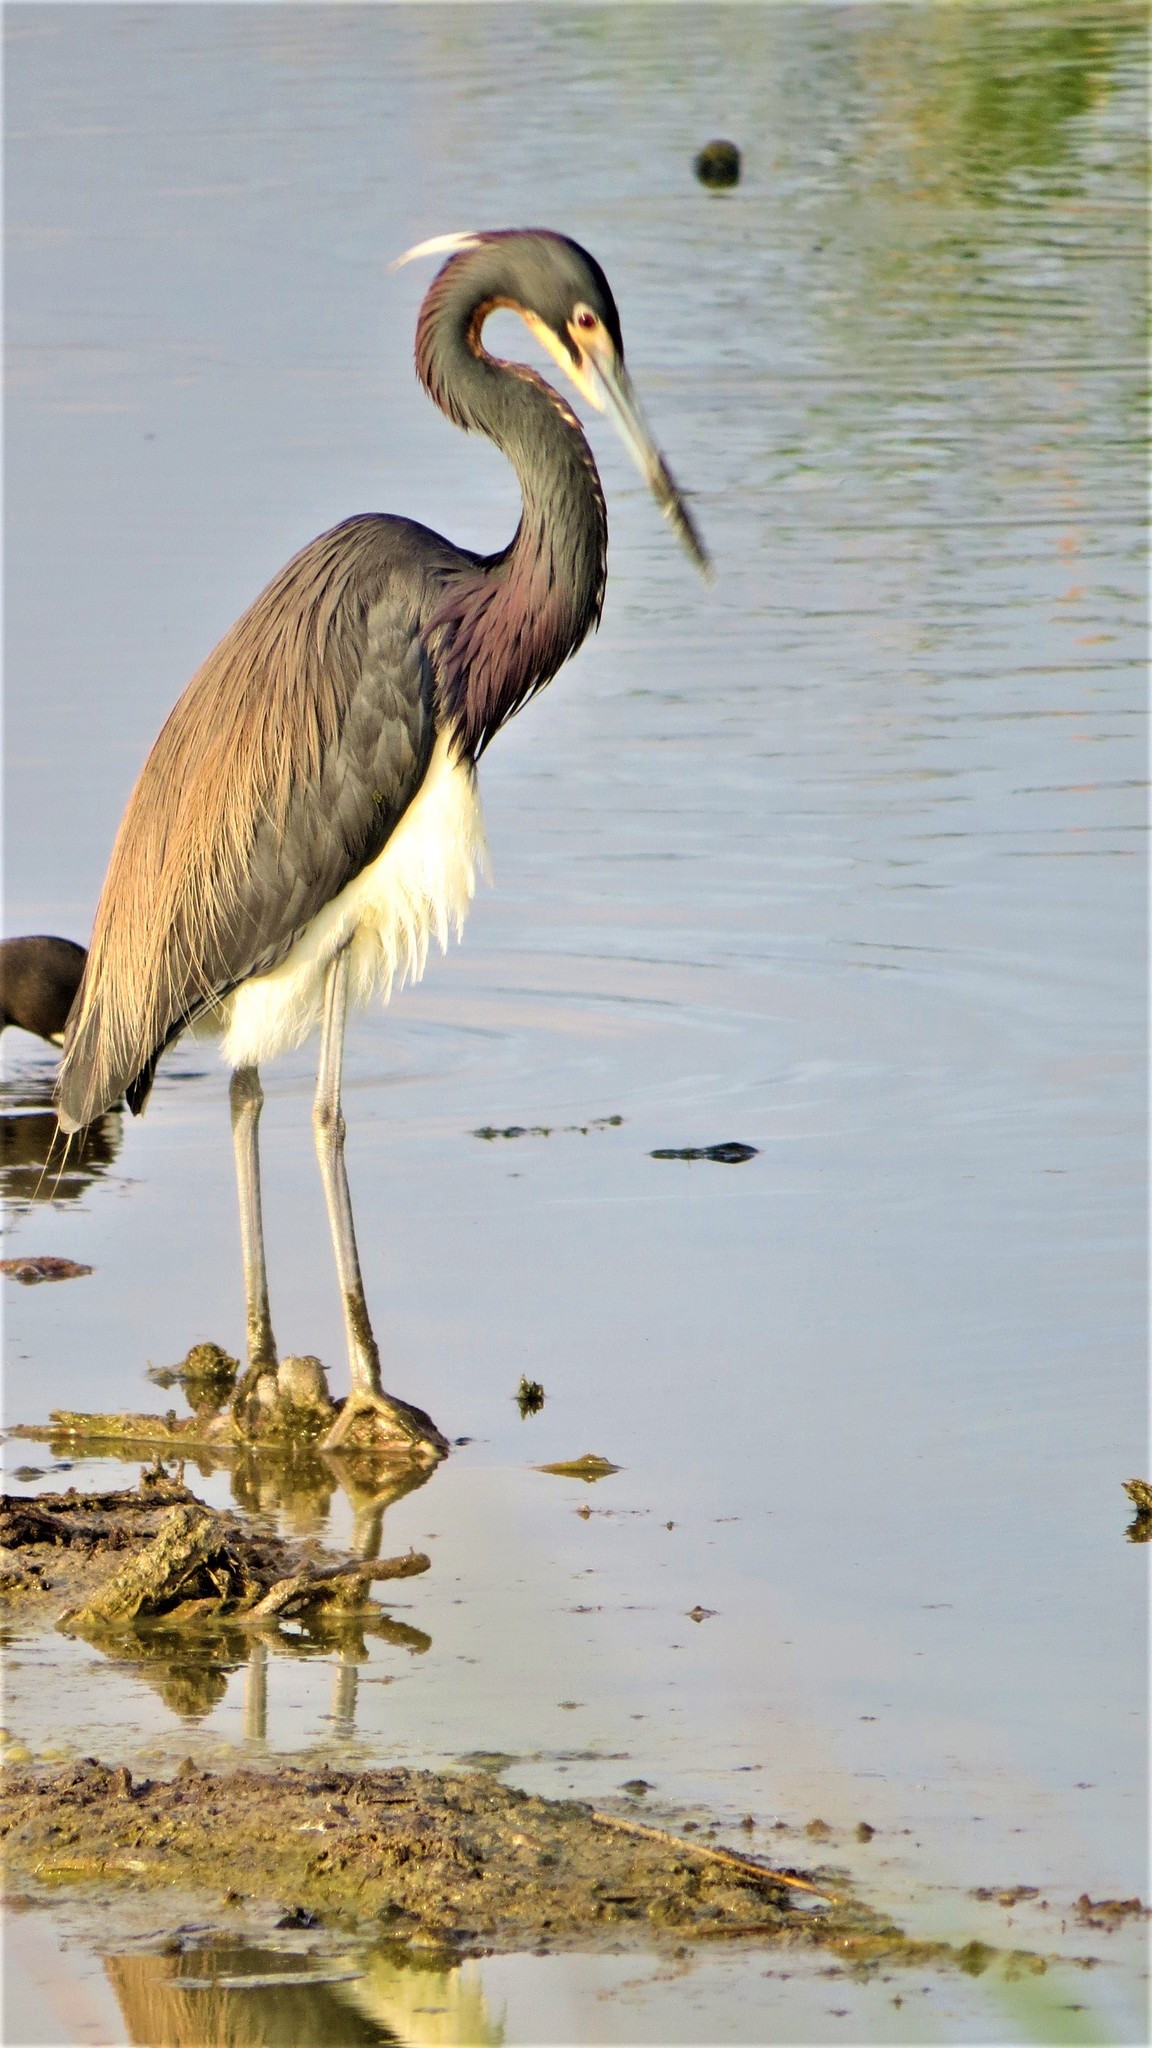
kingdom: Animalia
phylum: Chordata
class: Aves
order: Pelecaniformes
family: Ardeidae
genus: Egretta
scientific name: Egretta tricolor
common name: Tricolored heron
